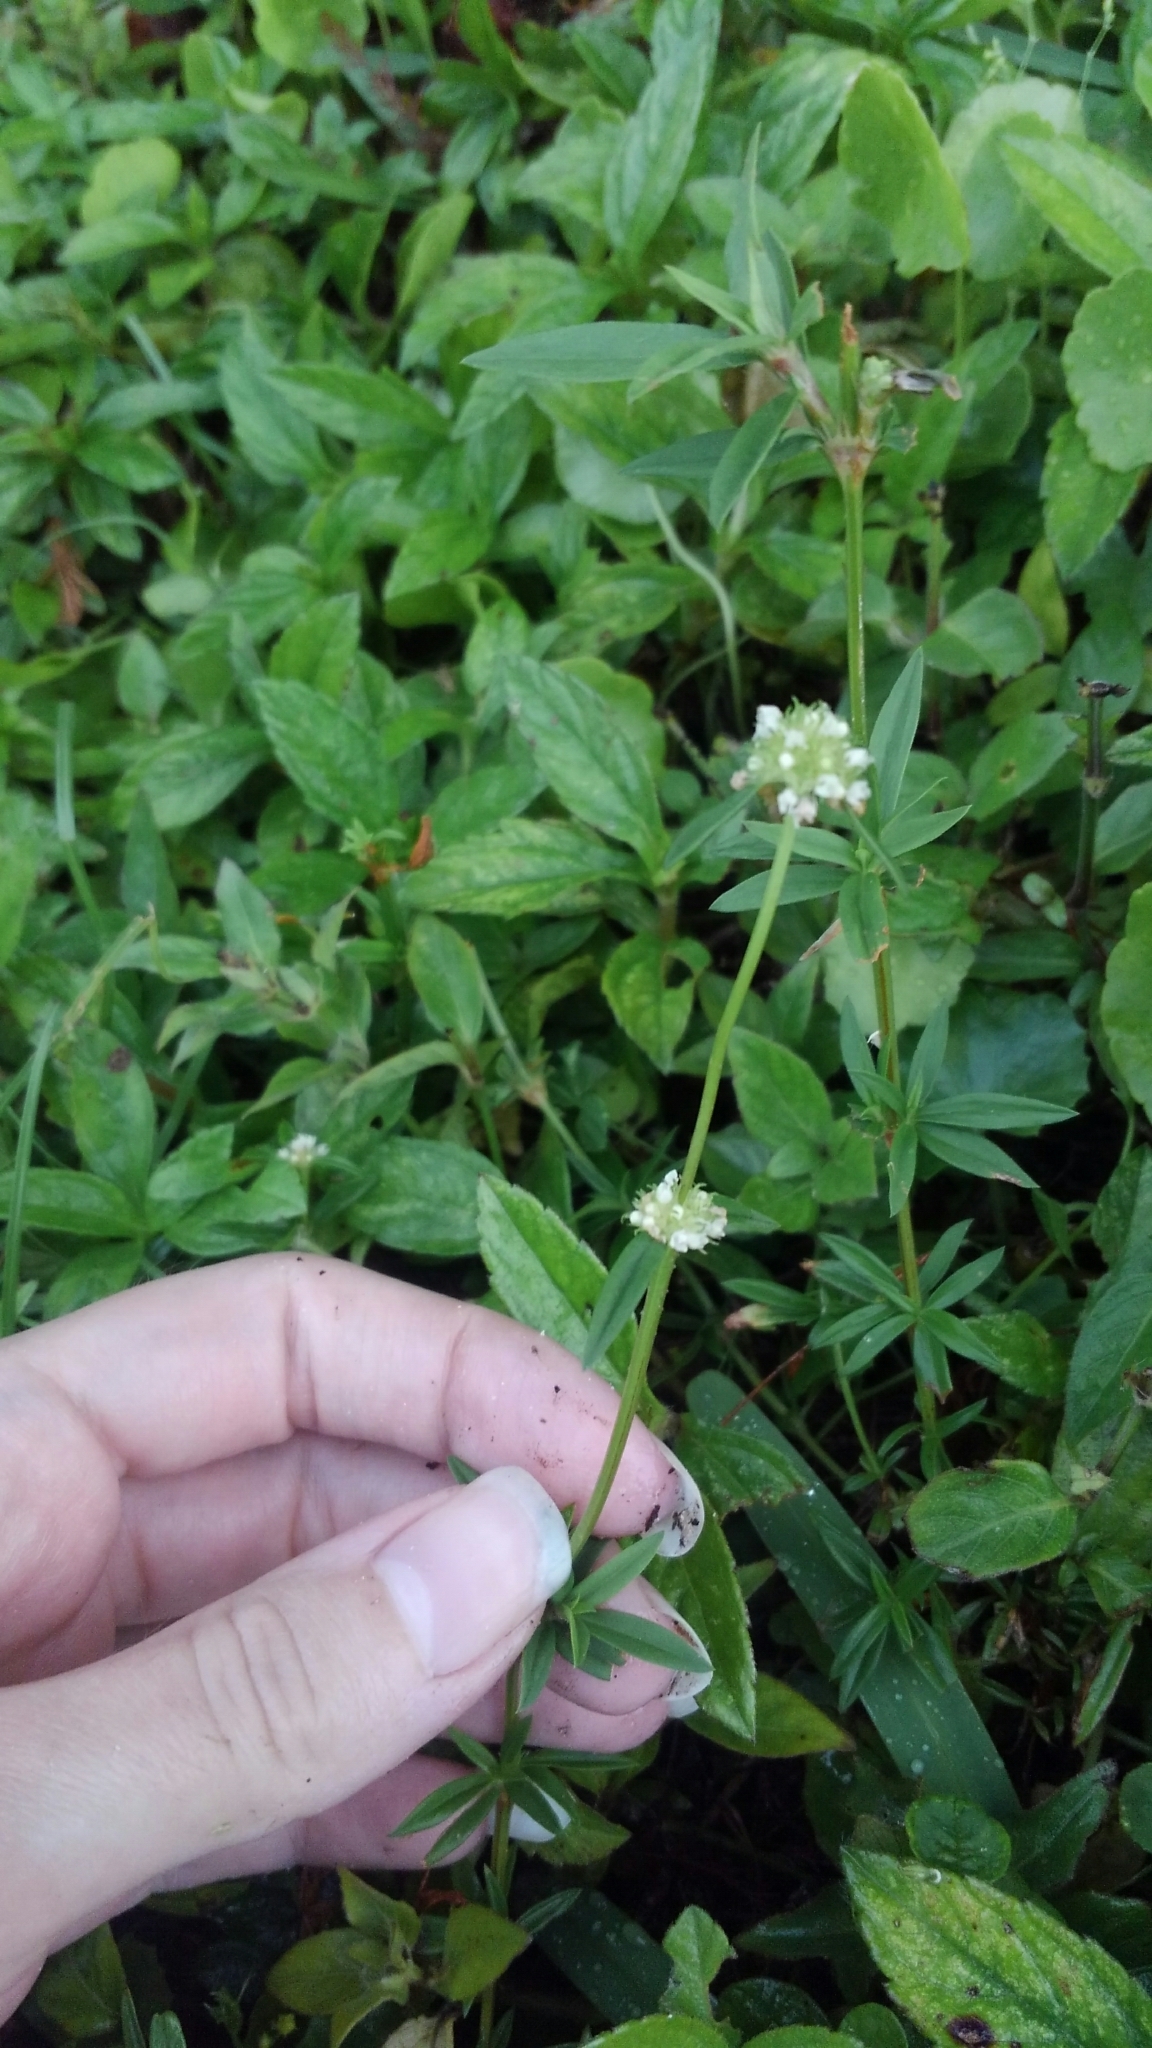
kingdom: Plantae
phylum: Tracheophyta
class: Magnoliopsida
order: Gentianales
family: Rubiaceae
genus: Spermacoce
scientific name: Spermacoce verticillata
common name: Shrubby false buttonweed
